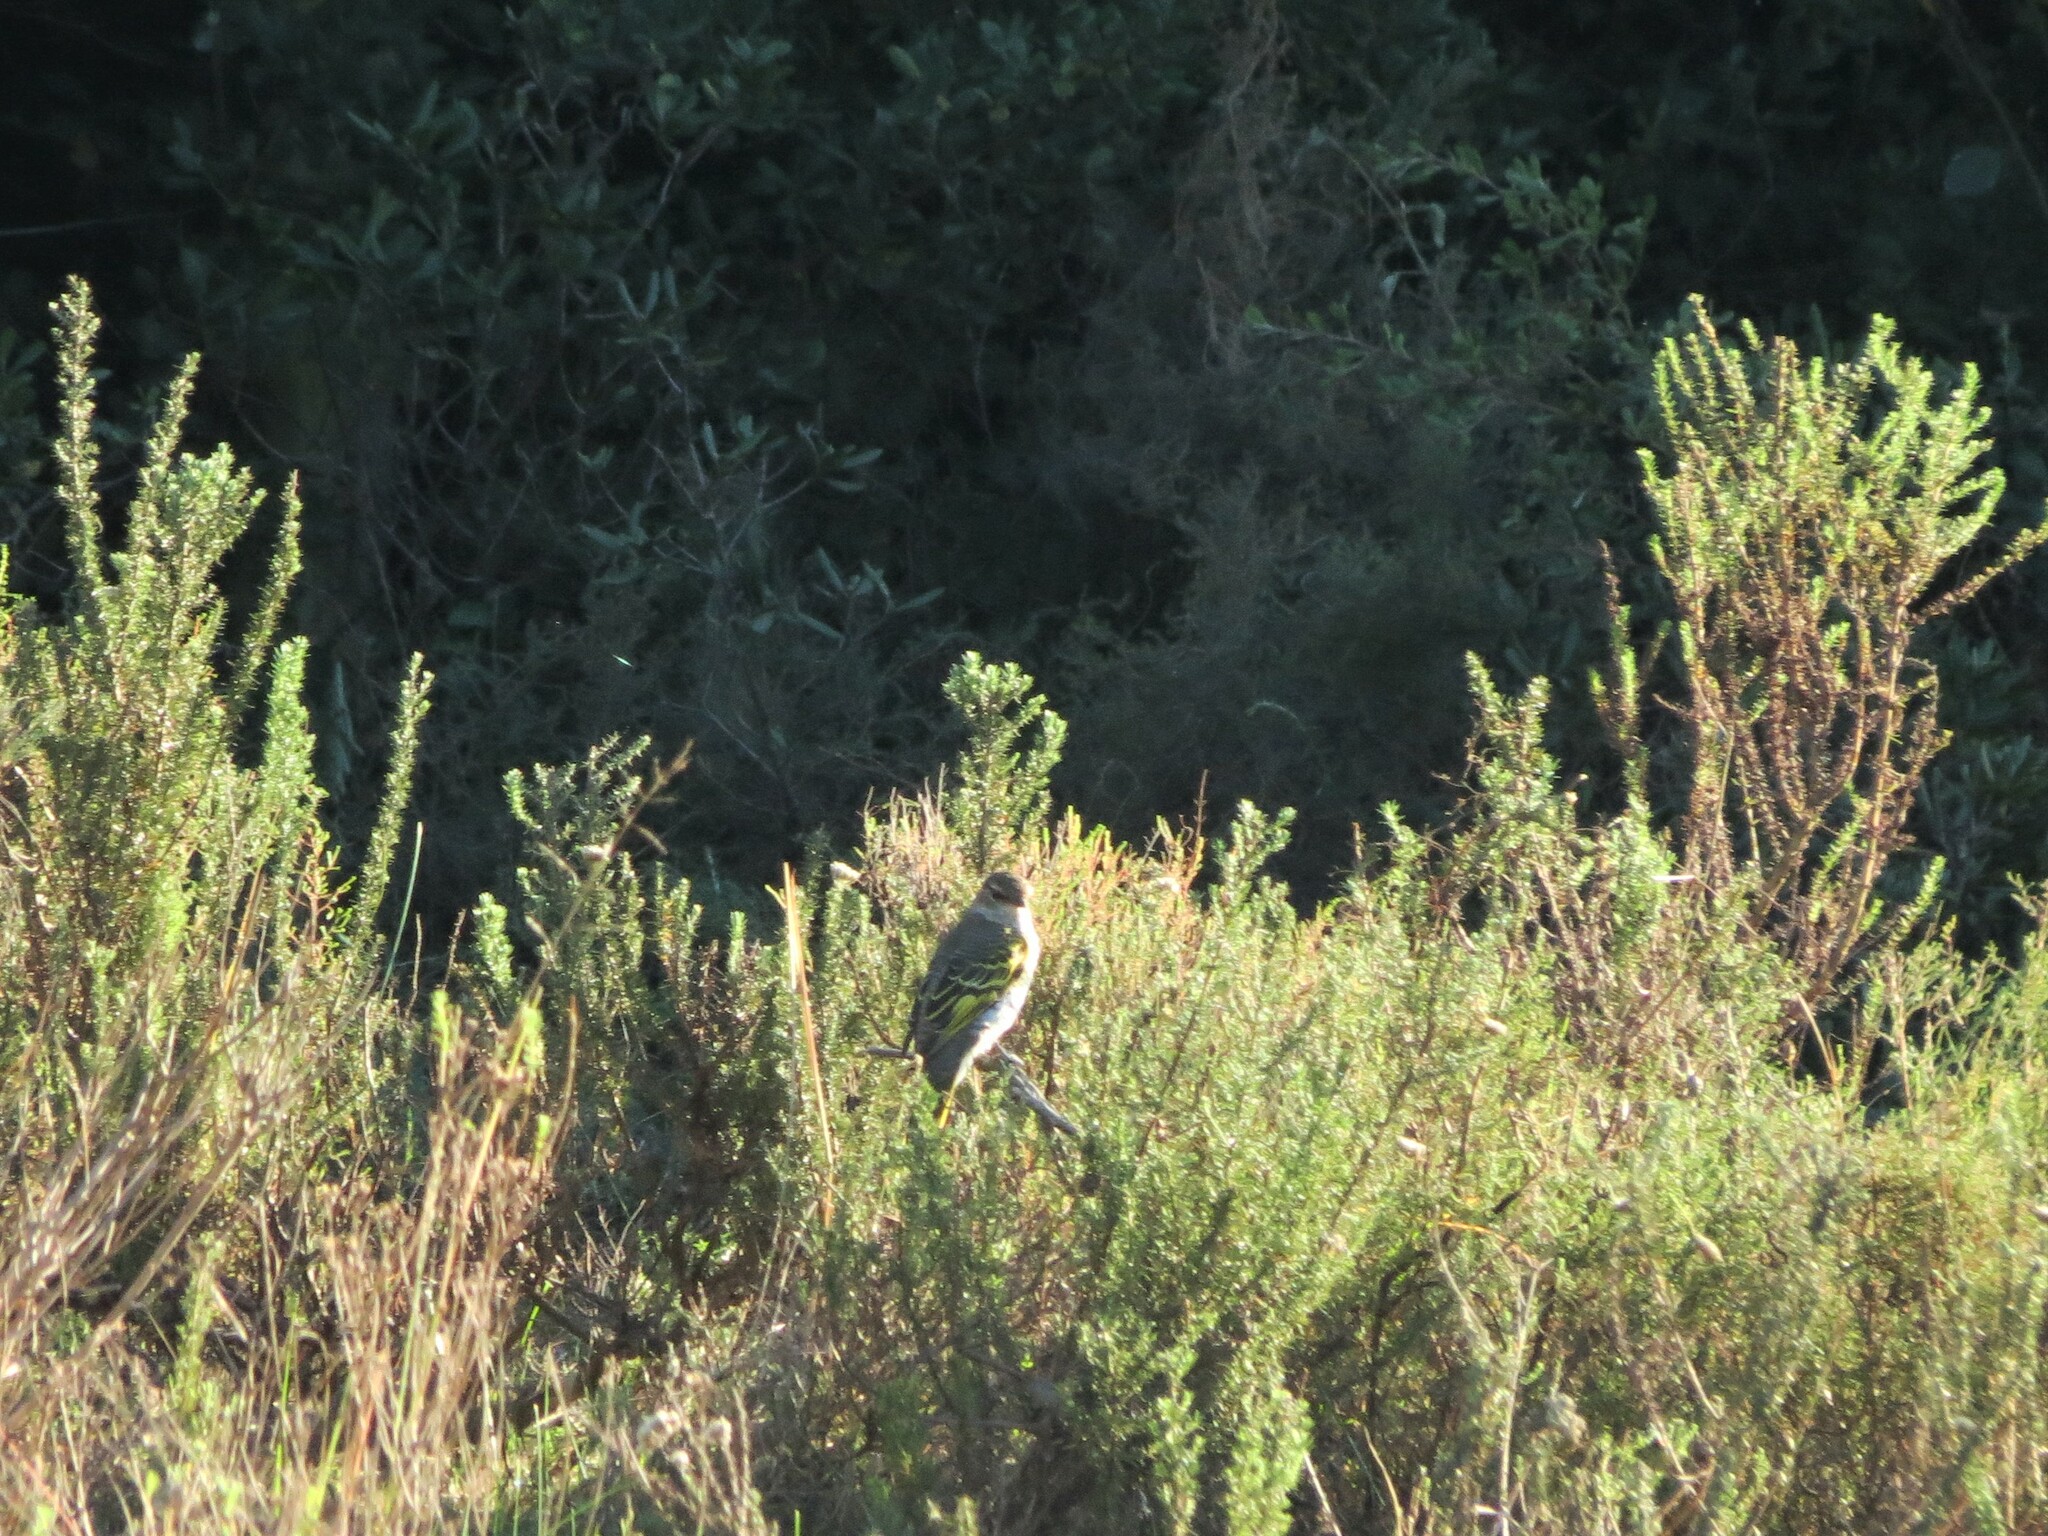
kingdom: Animalia
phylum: Chordata
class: Aves
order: Passeriformes
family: Campephagidae
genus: Campephaga
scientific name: Campephaga flava
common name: Black cuckooshrike
